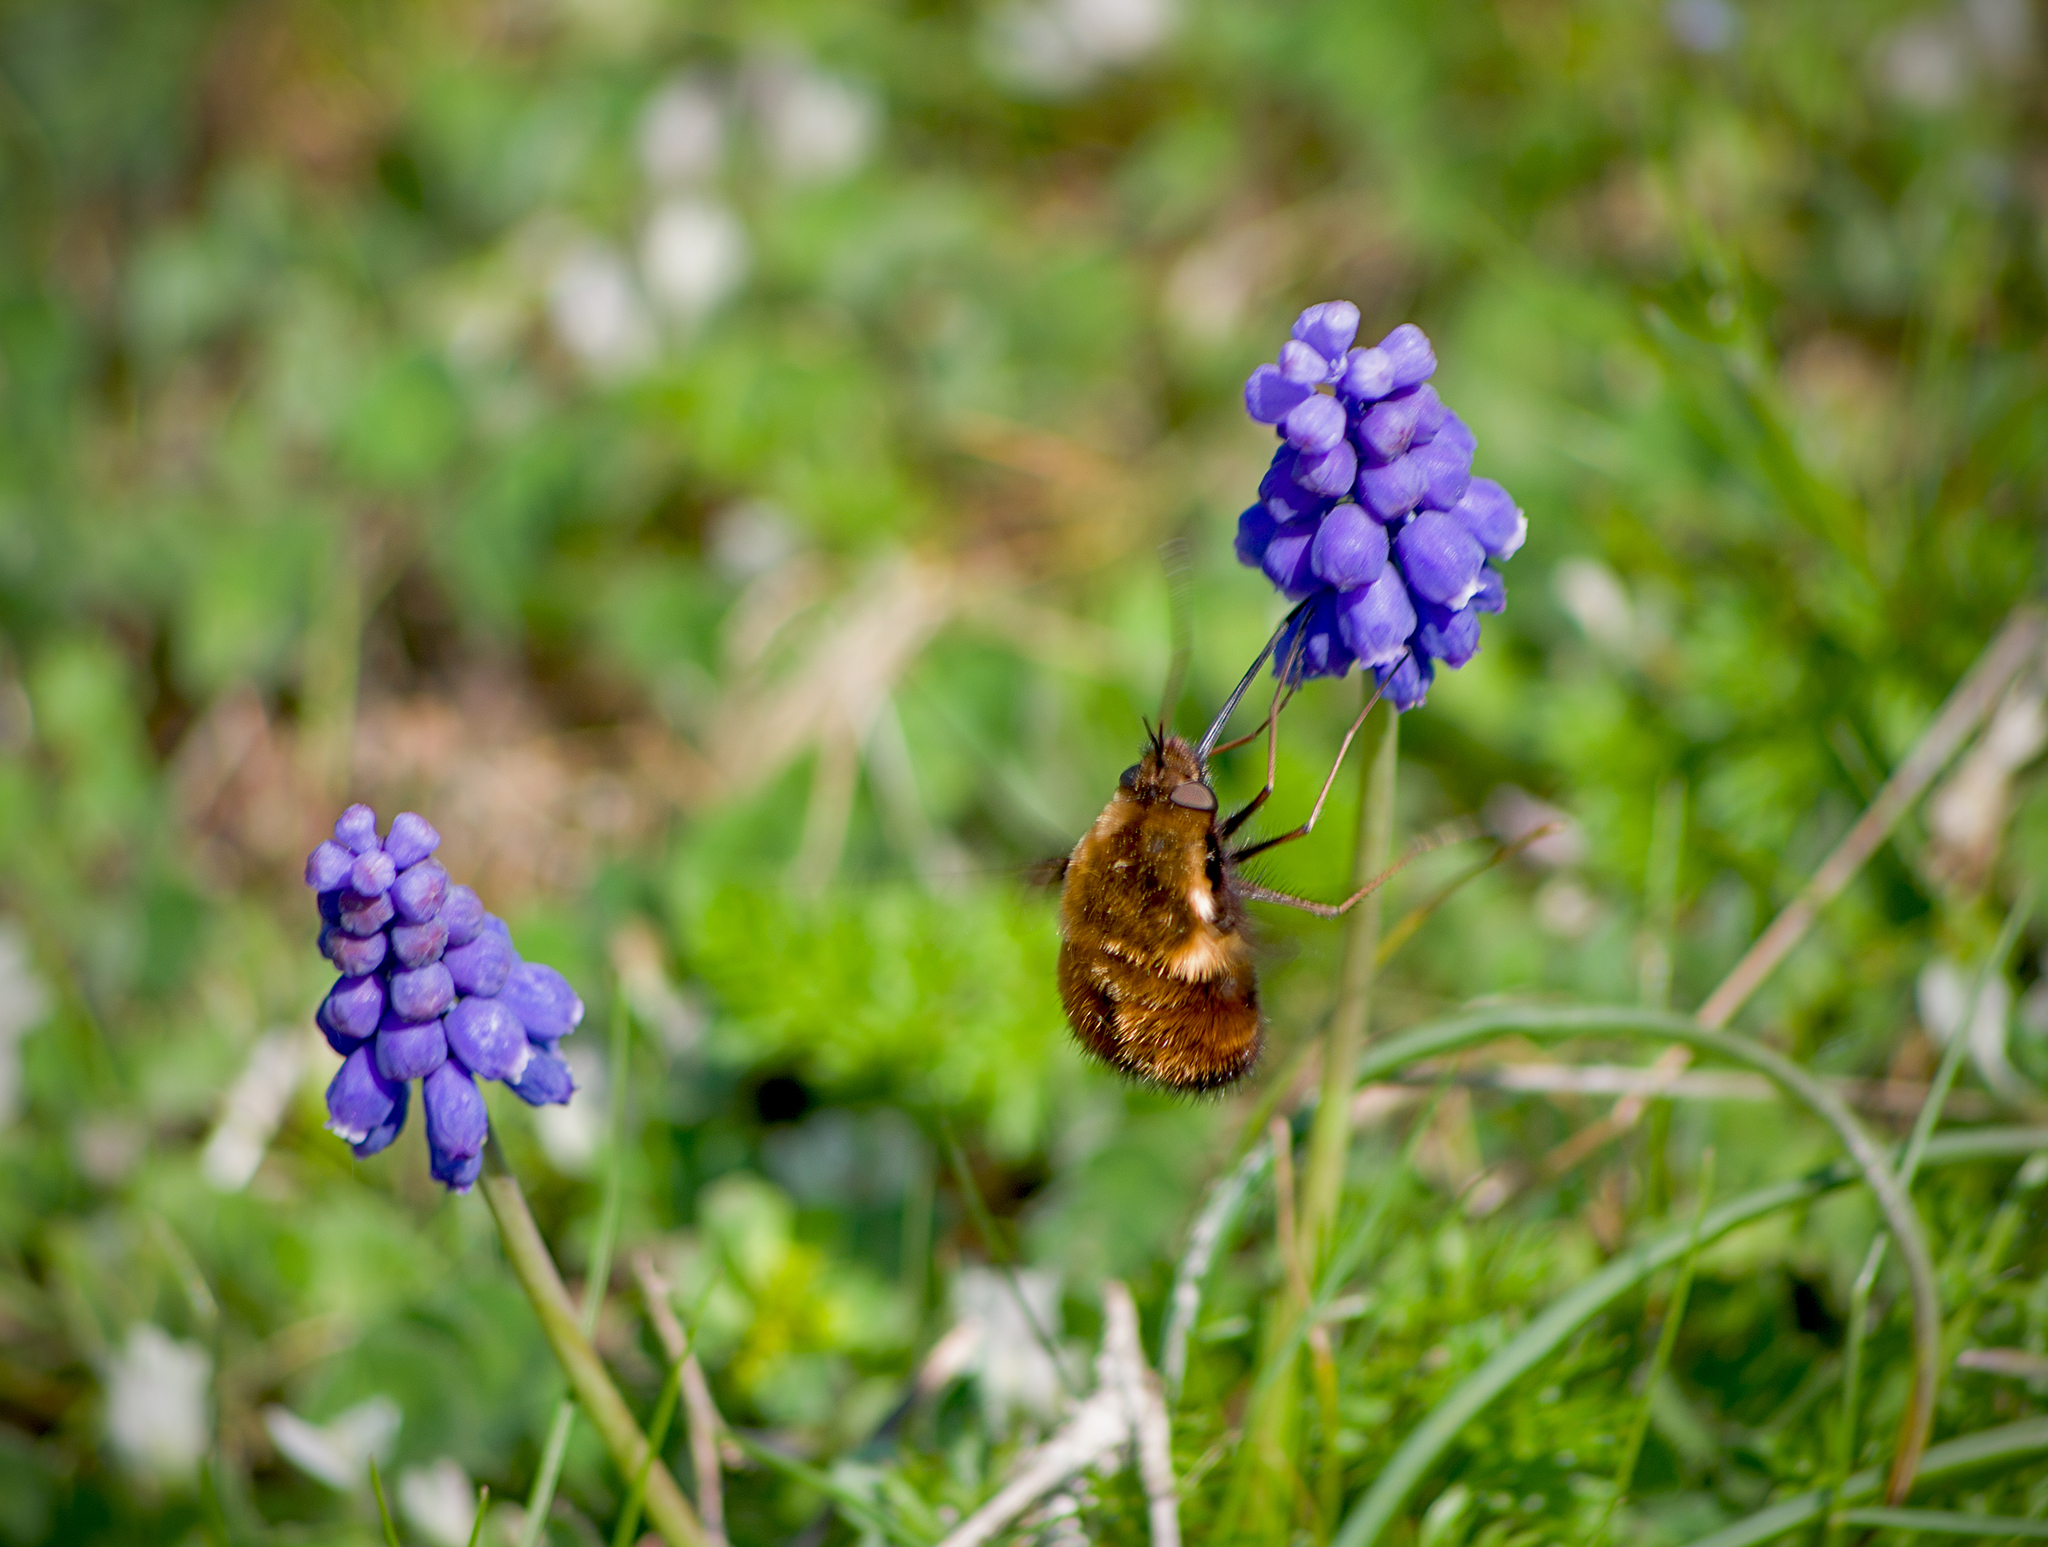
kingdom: Animalia
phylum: Arthropoda
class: Insecta
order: Diptera
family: Bombyliidae
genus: Bombylius
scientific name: Bombylius major
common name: Bee fly
